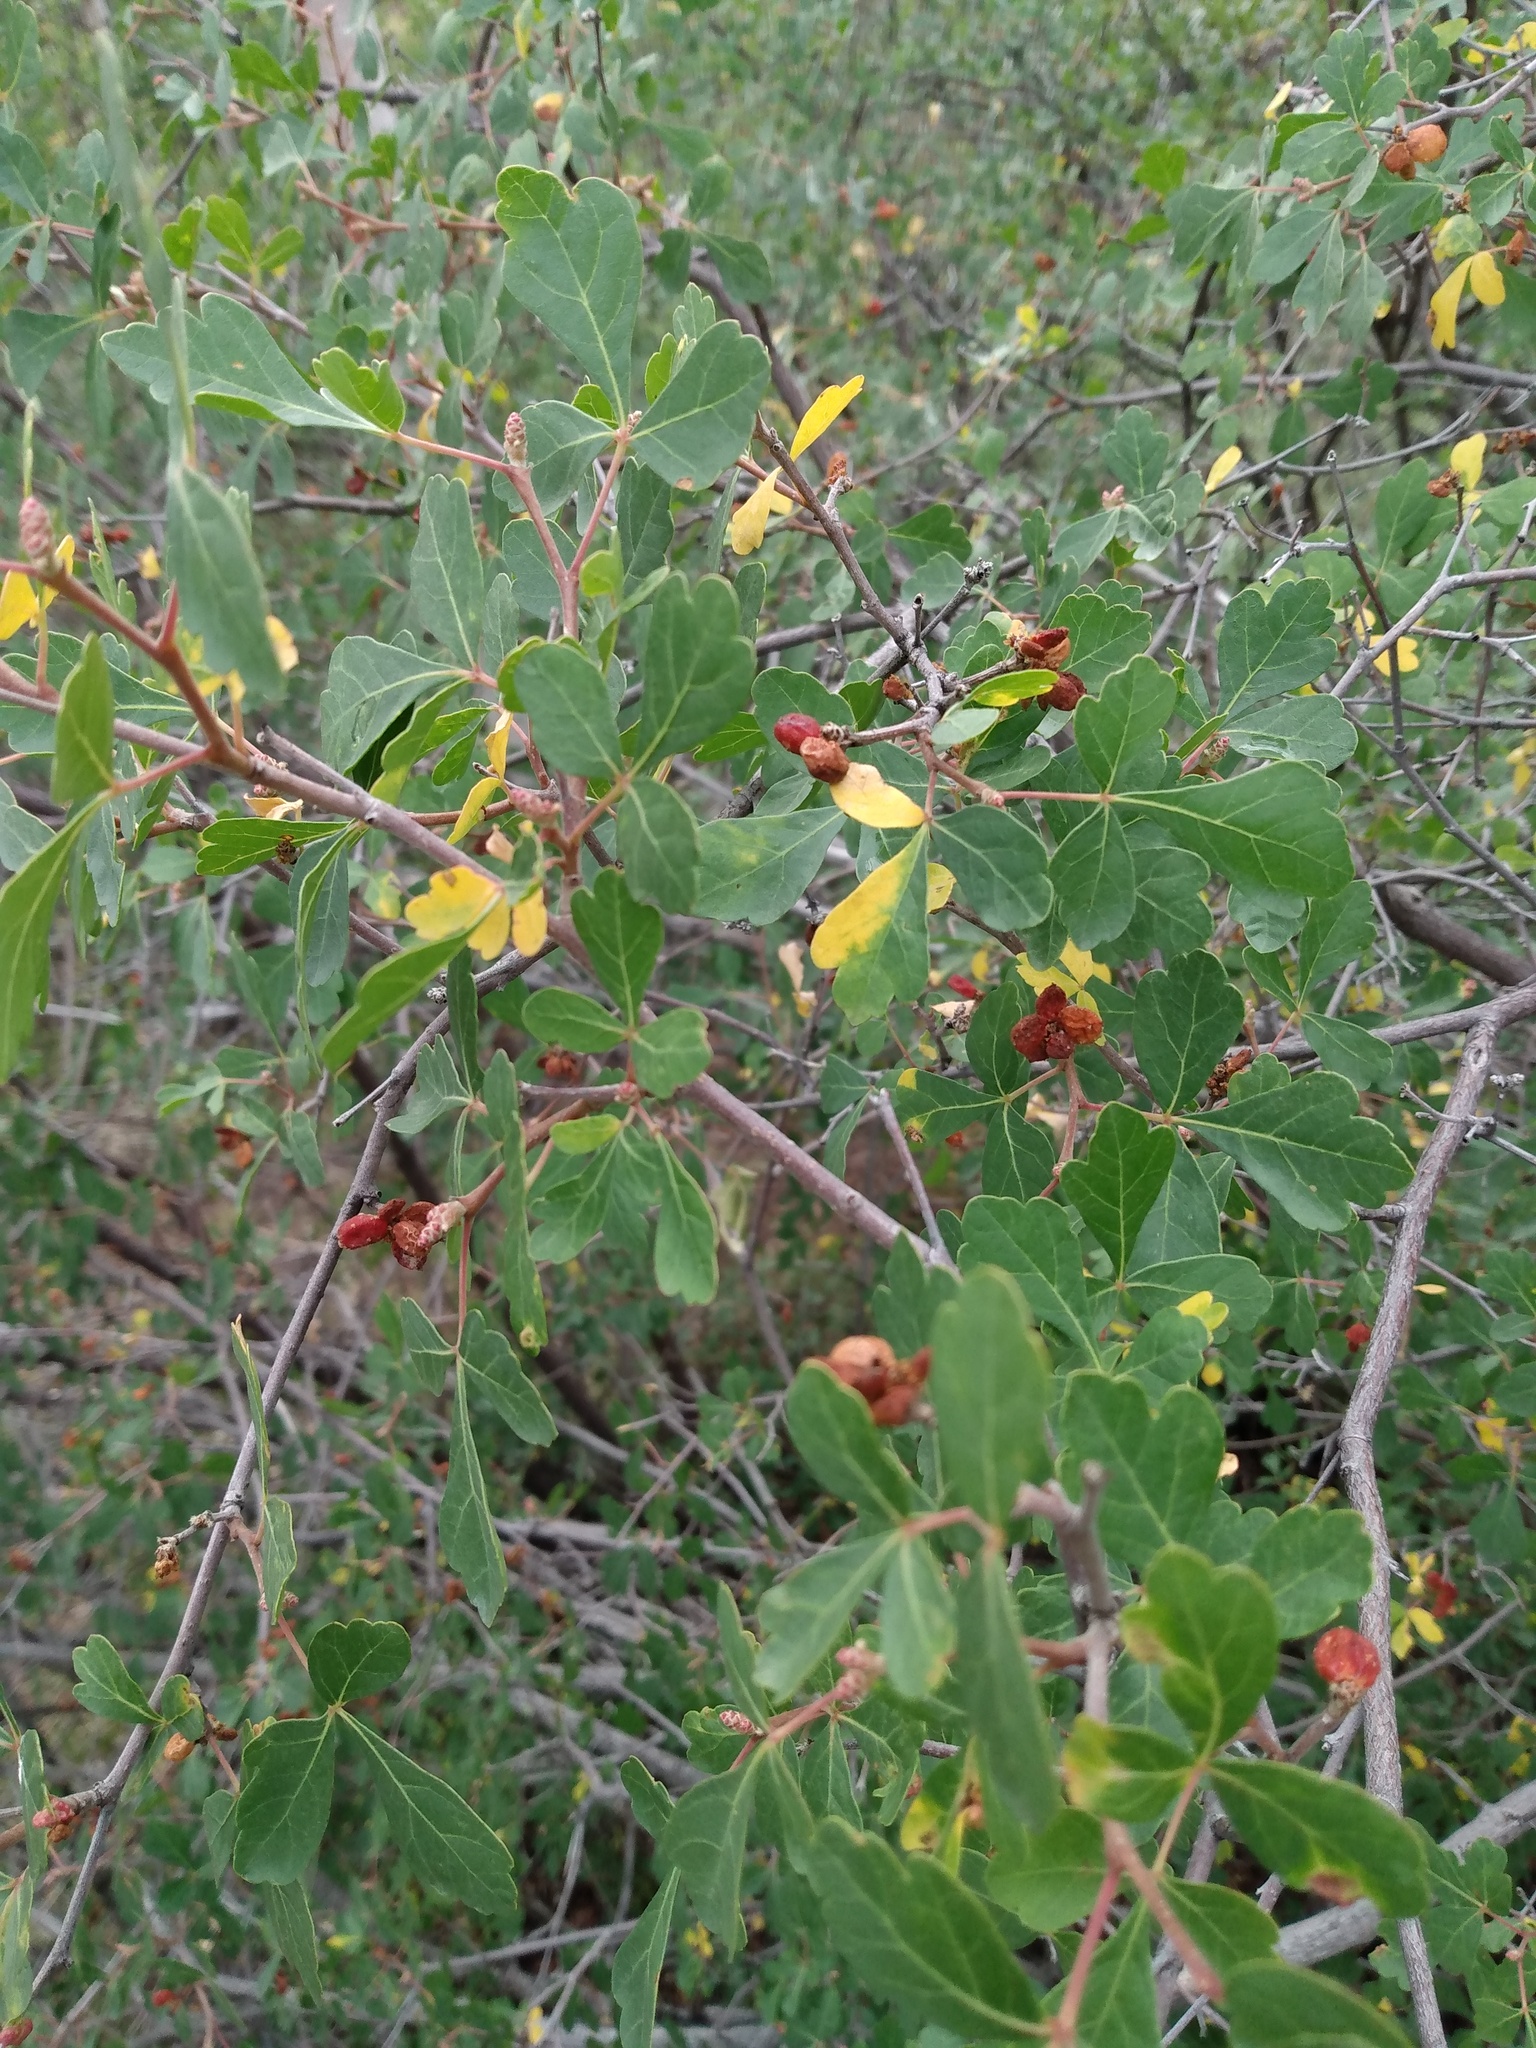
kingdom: Plantae
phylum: Tracheophyta
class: Magnoliopsida
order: Sapindales
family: Anacardiaceae
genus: Rhus
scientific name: Rhus trilobata
